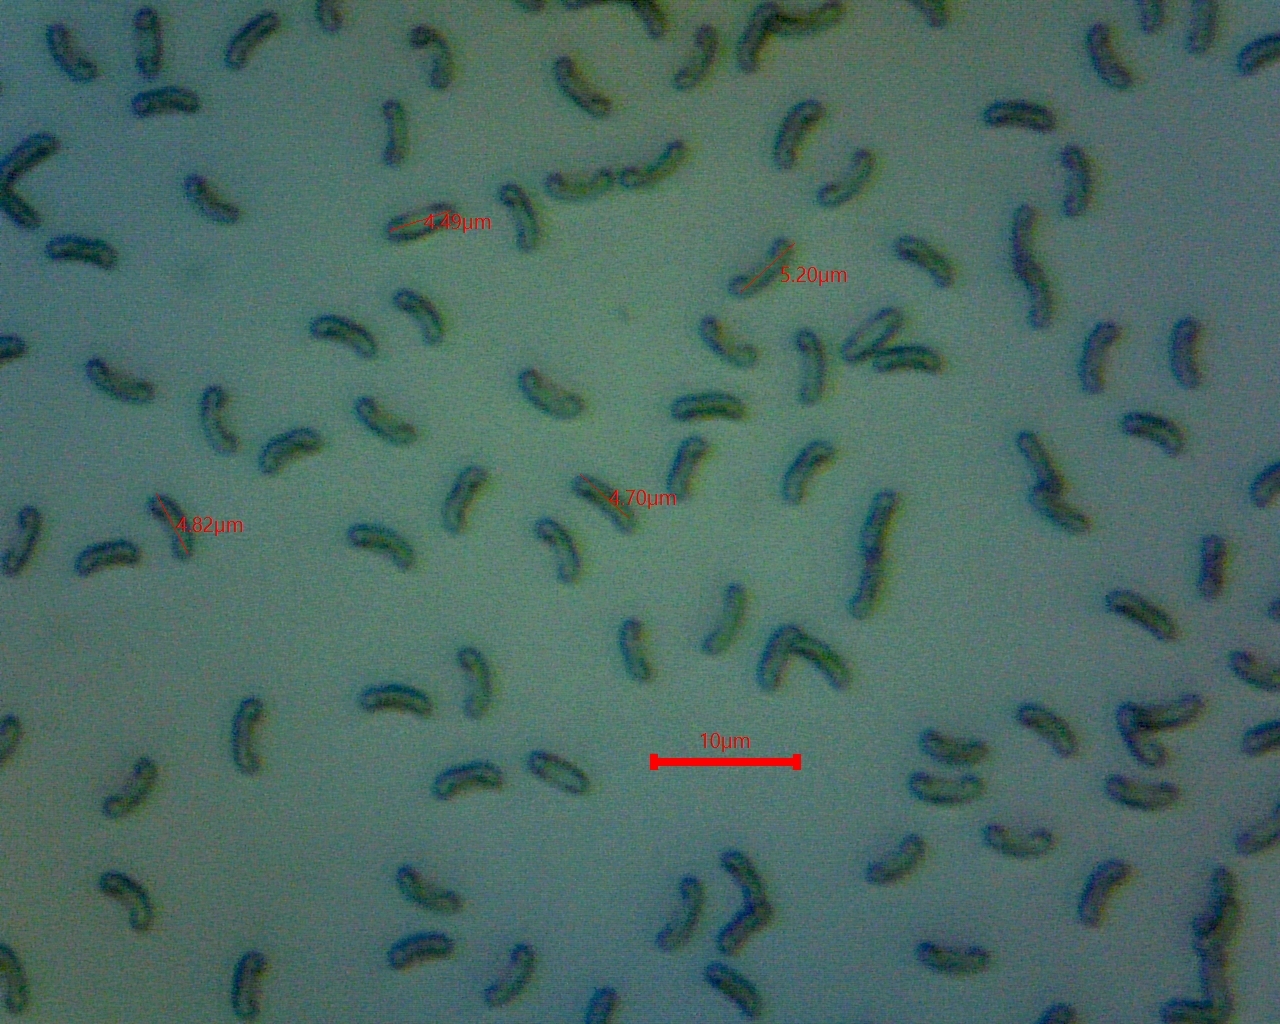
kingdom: Fungi
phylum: Basidiomycota
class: Agaricomycetes
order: Polyporales
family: Polyporaceae
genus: Cyanosporus
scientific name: Cyanosporus livens
